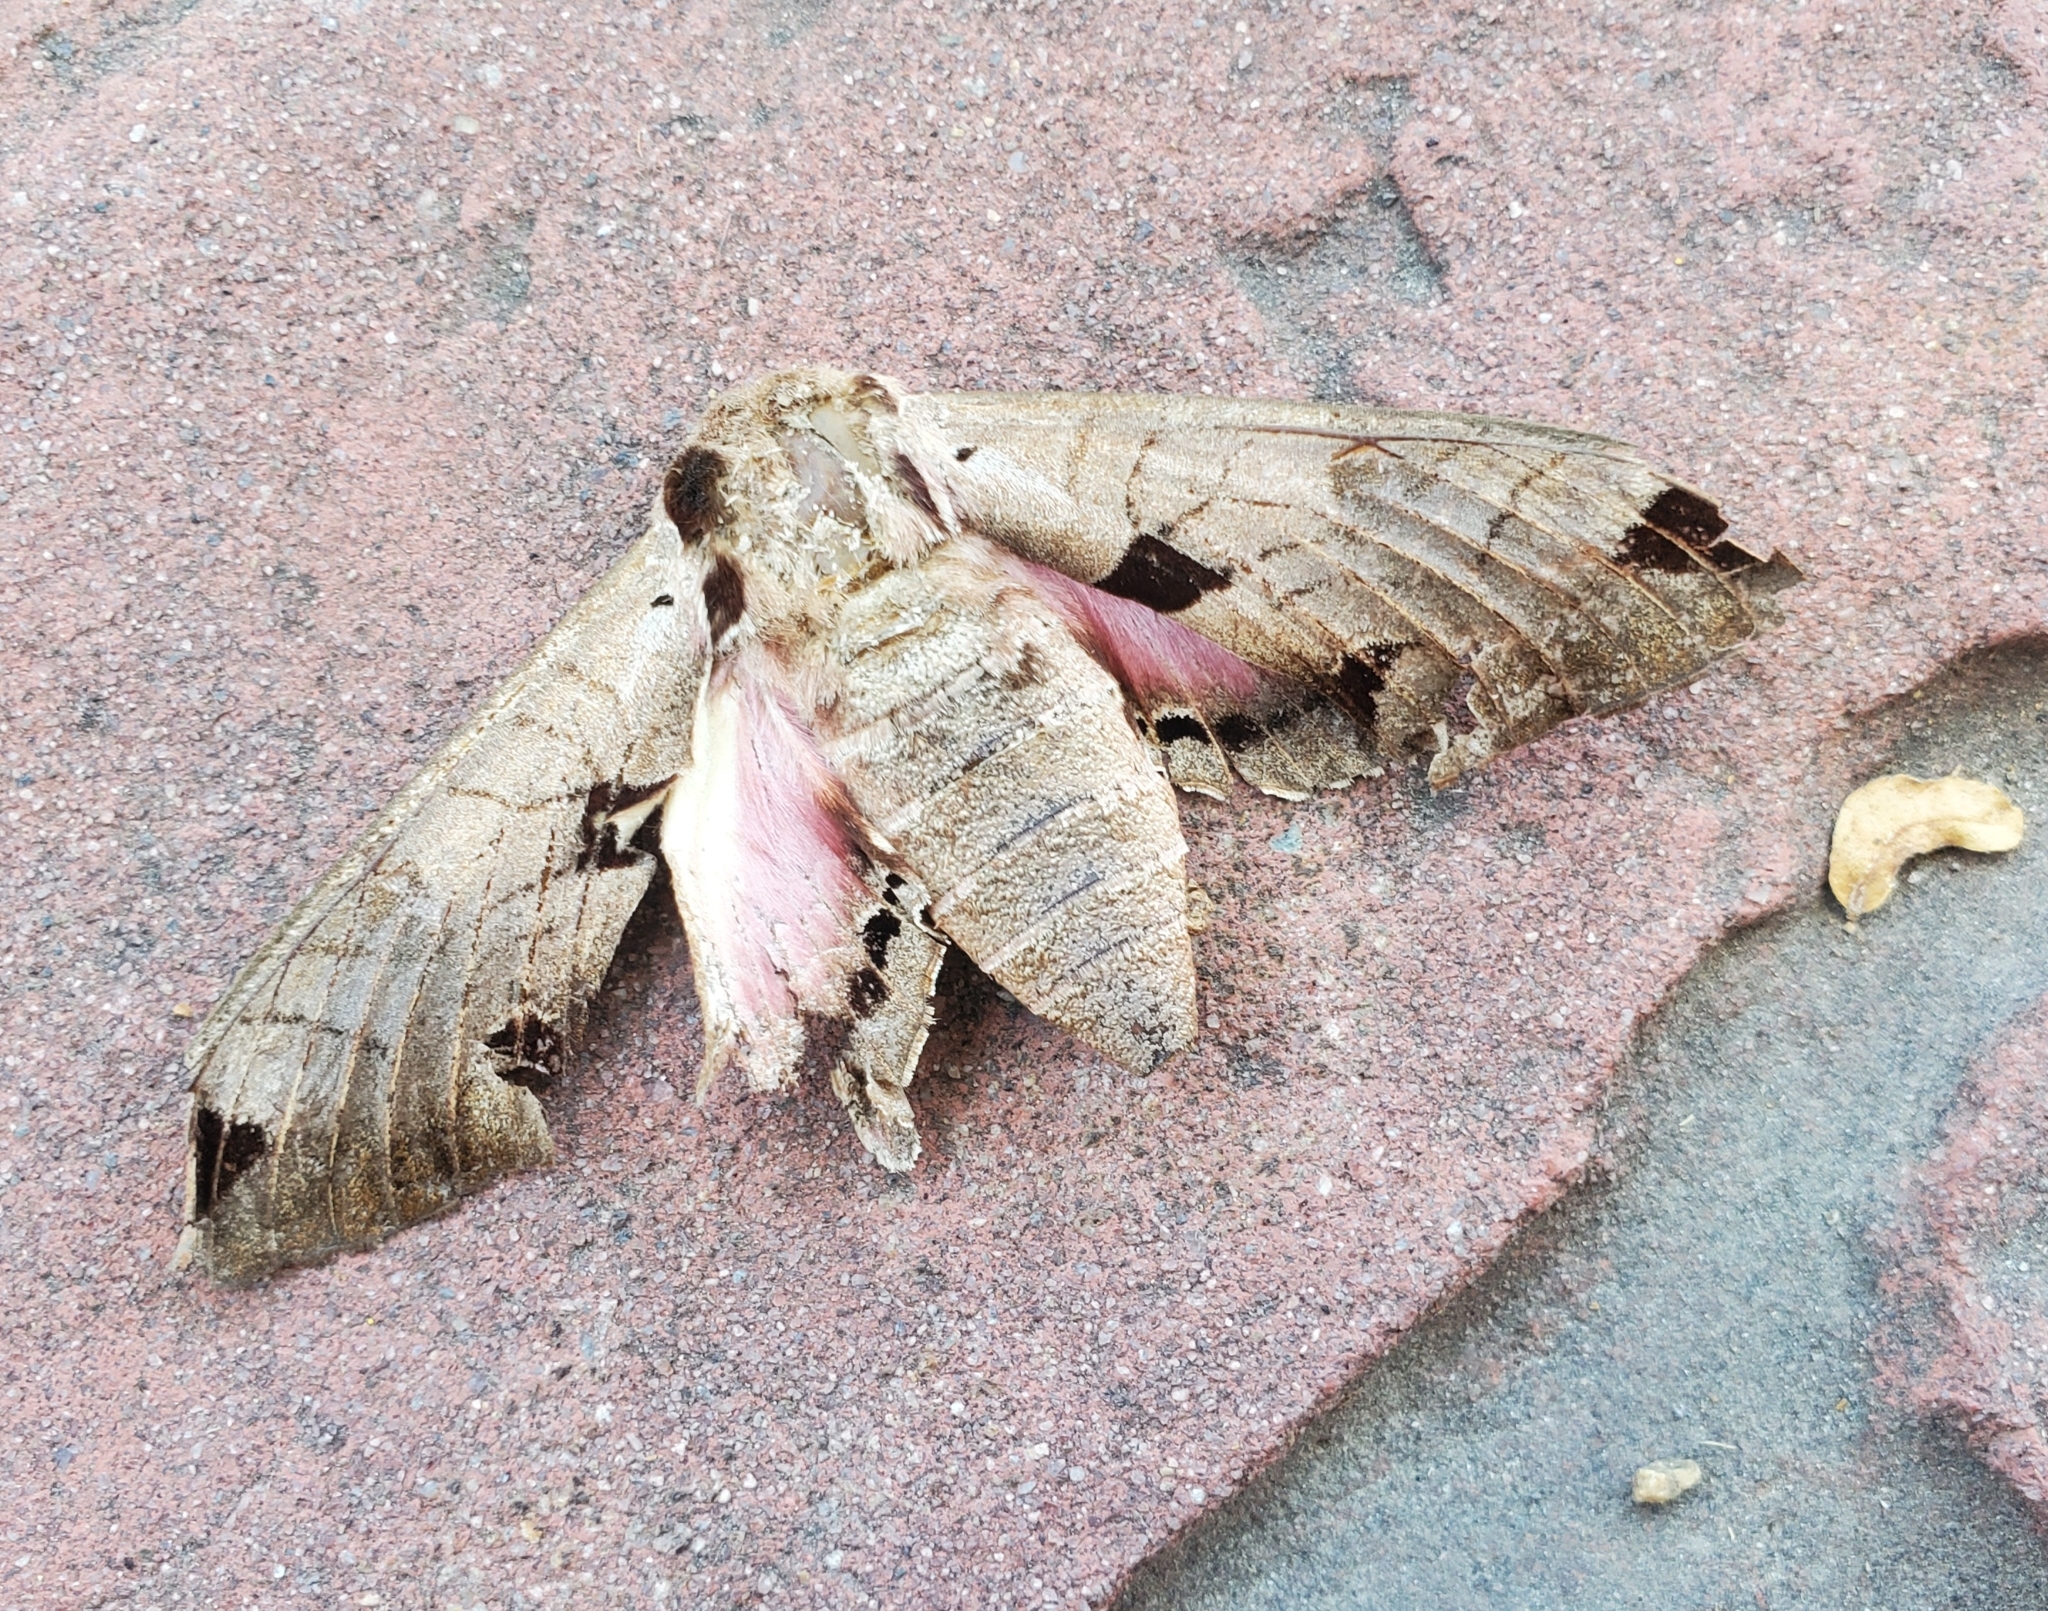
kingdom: Animalia
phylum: Arthropoda
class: Insecta
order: Lepidoptera
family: Sphingidae
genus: Eumorpha
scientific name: Eumorpha achemon
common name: Achemon sphinx
